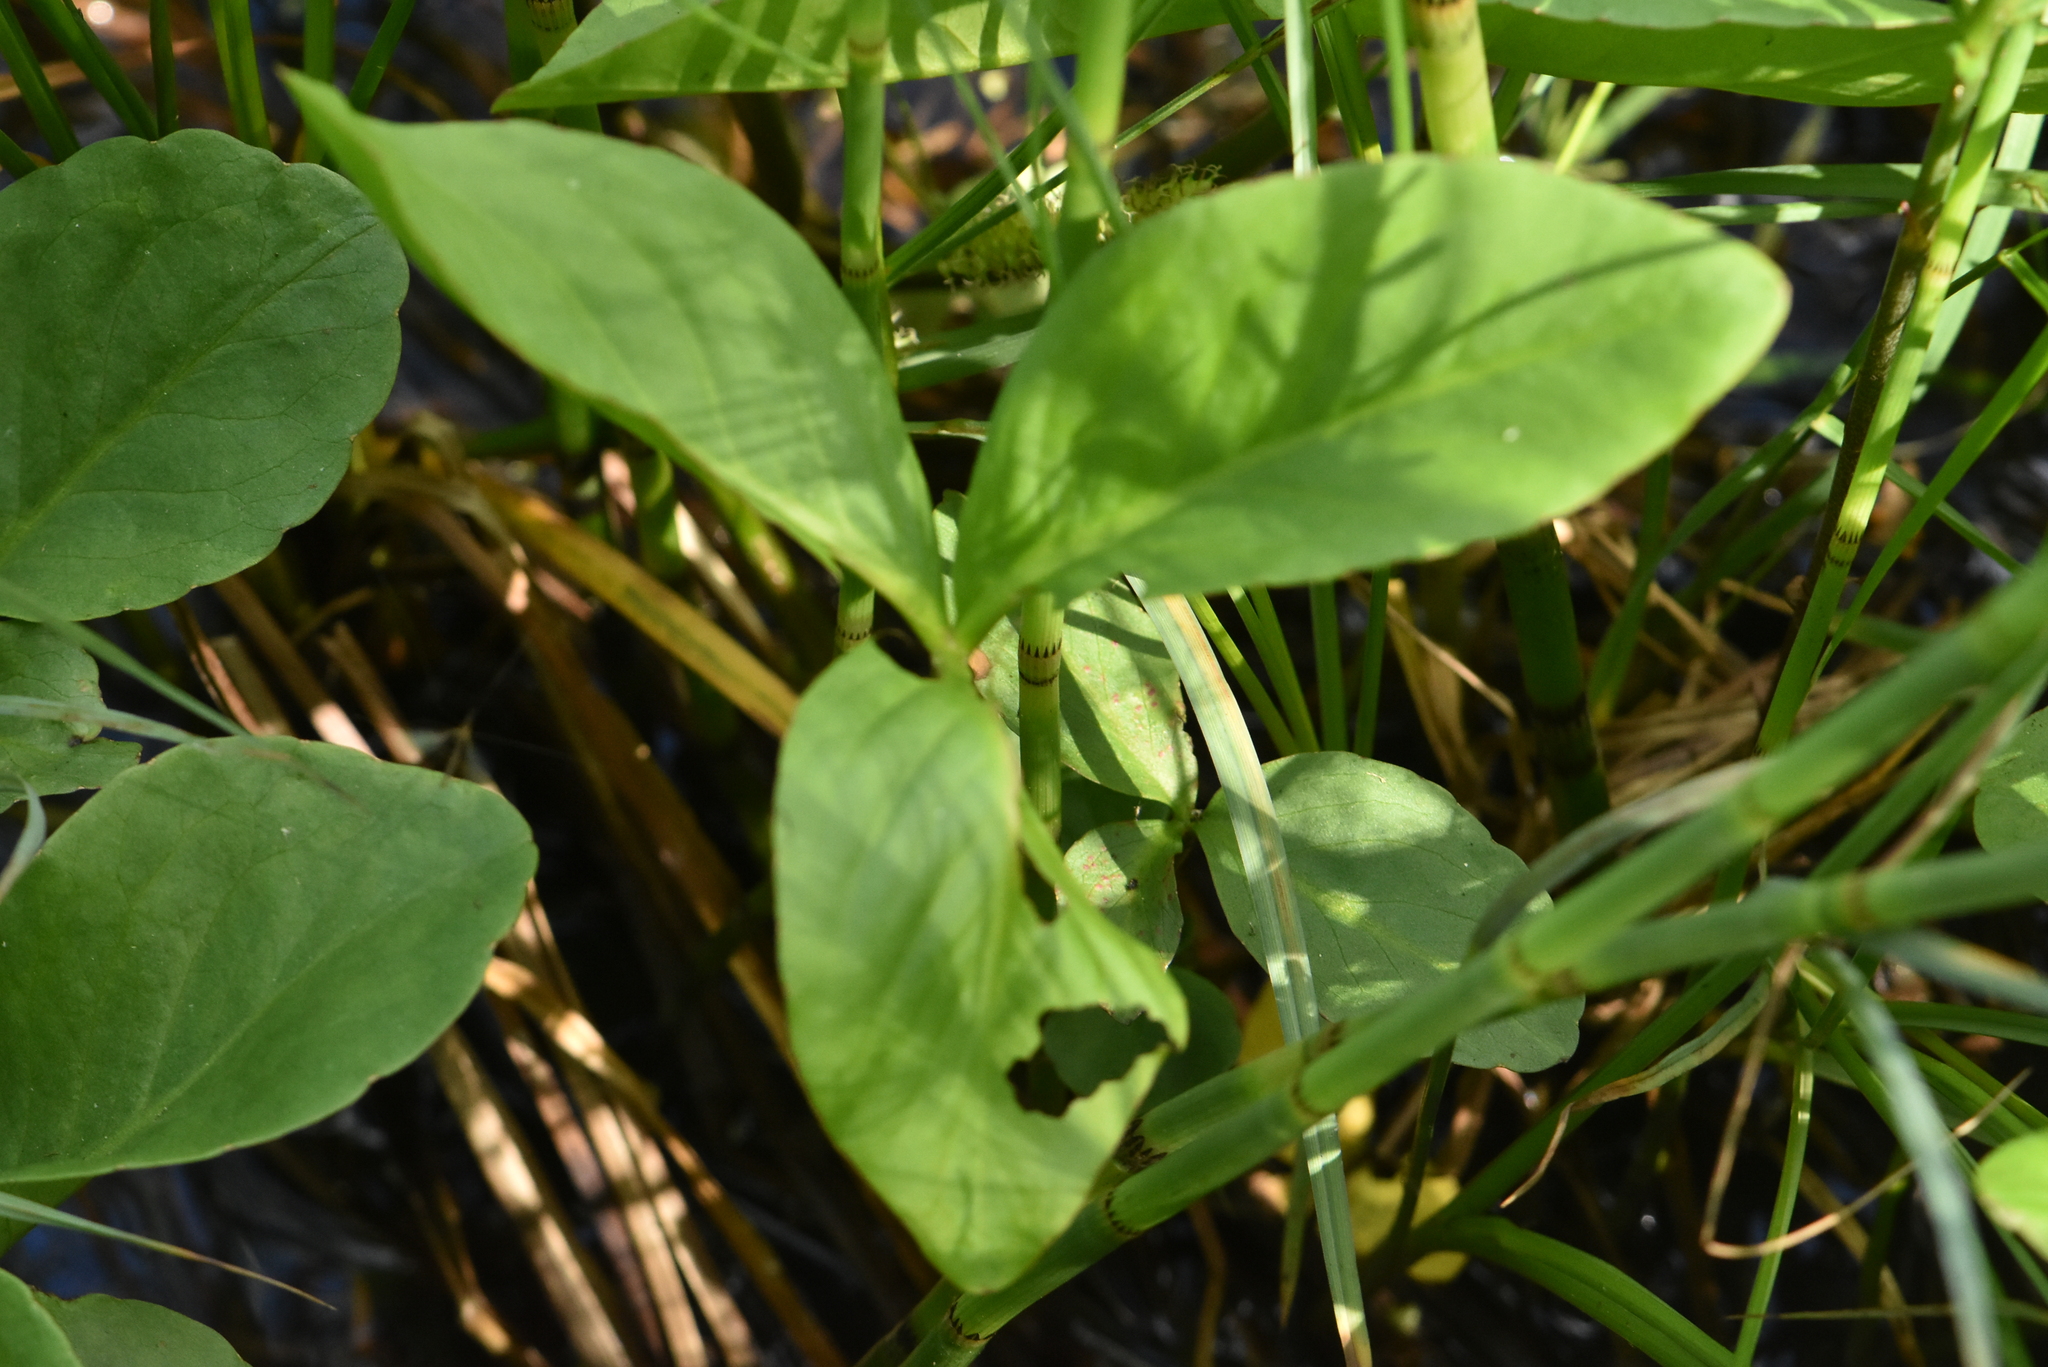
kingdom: Plantae
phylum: Tracheophyta
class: Magnoliopsida
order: Asterales
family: Menyanthaceae
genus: Menyanthes
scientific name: Menyanthes trifoliata
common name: Bogbean
